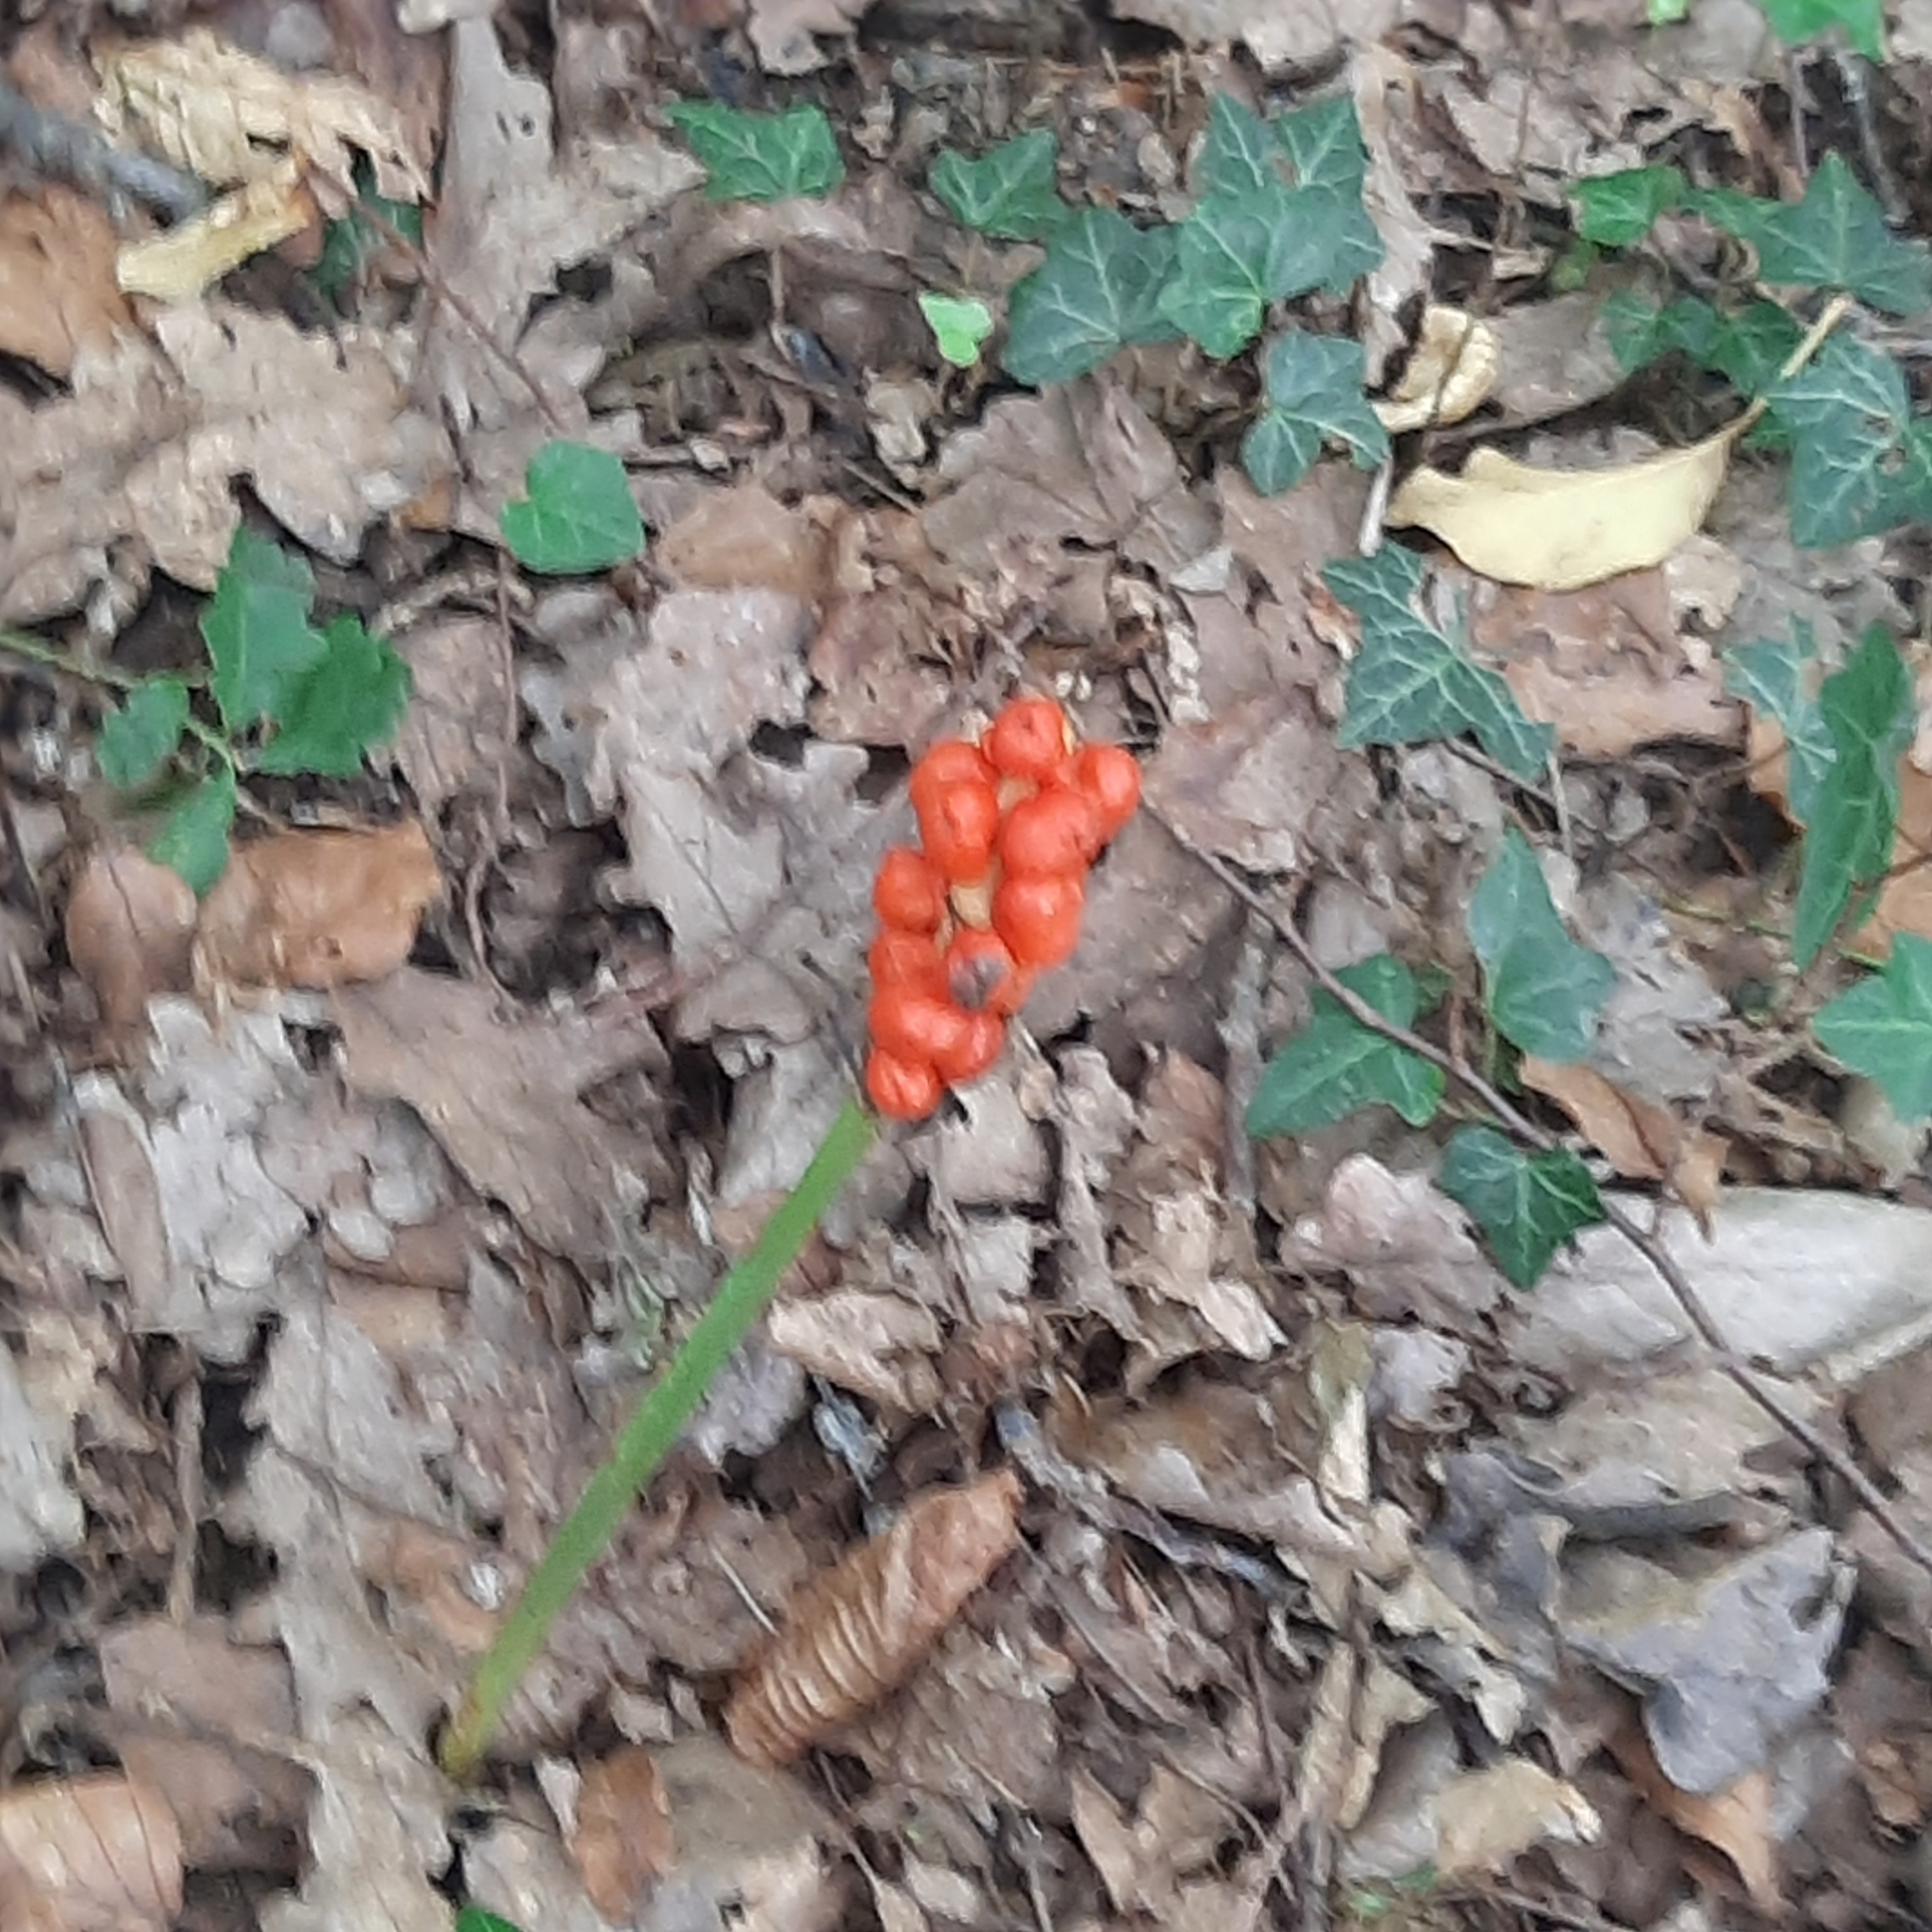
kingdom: Plantae
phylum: Tracheophyta
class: Liliopsida
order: Alismatales
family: Araceae
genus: Arum
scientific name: Arum
